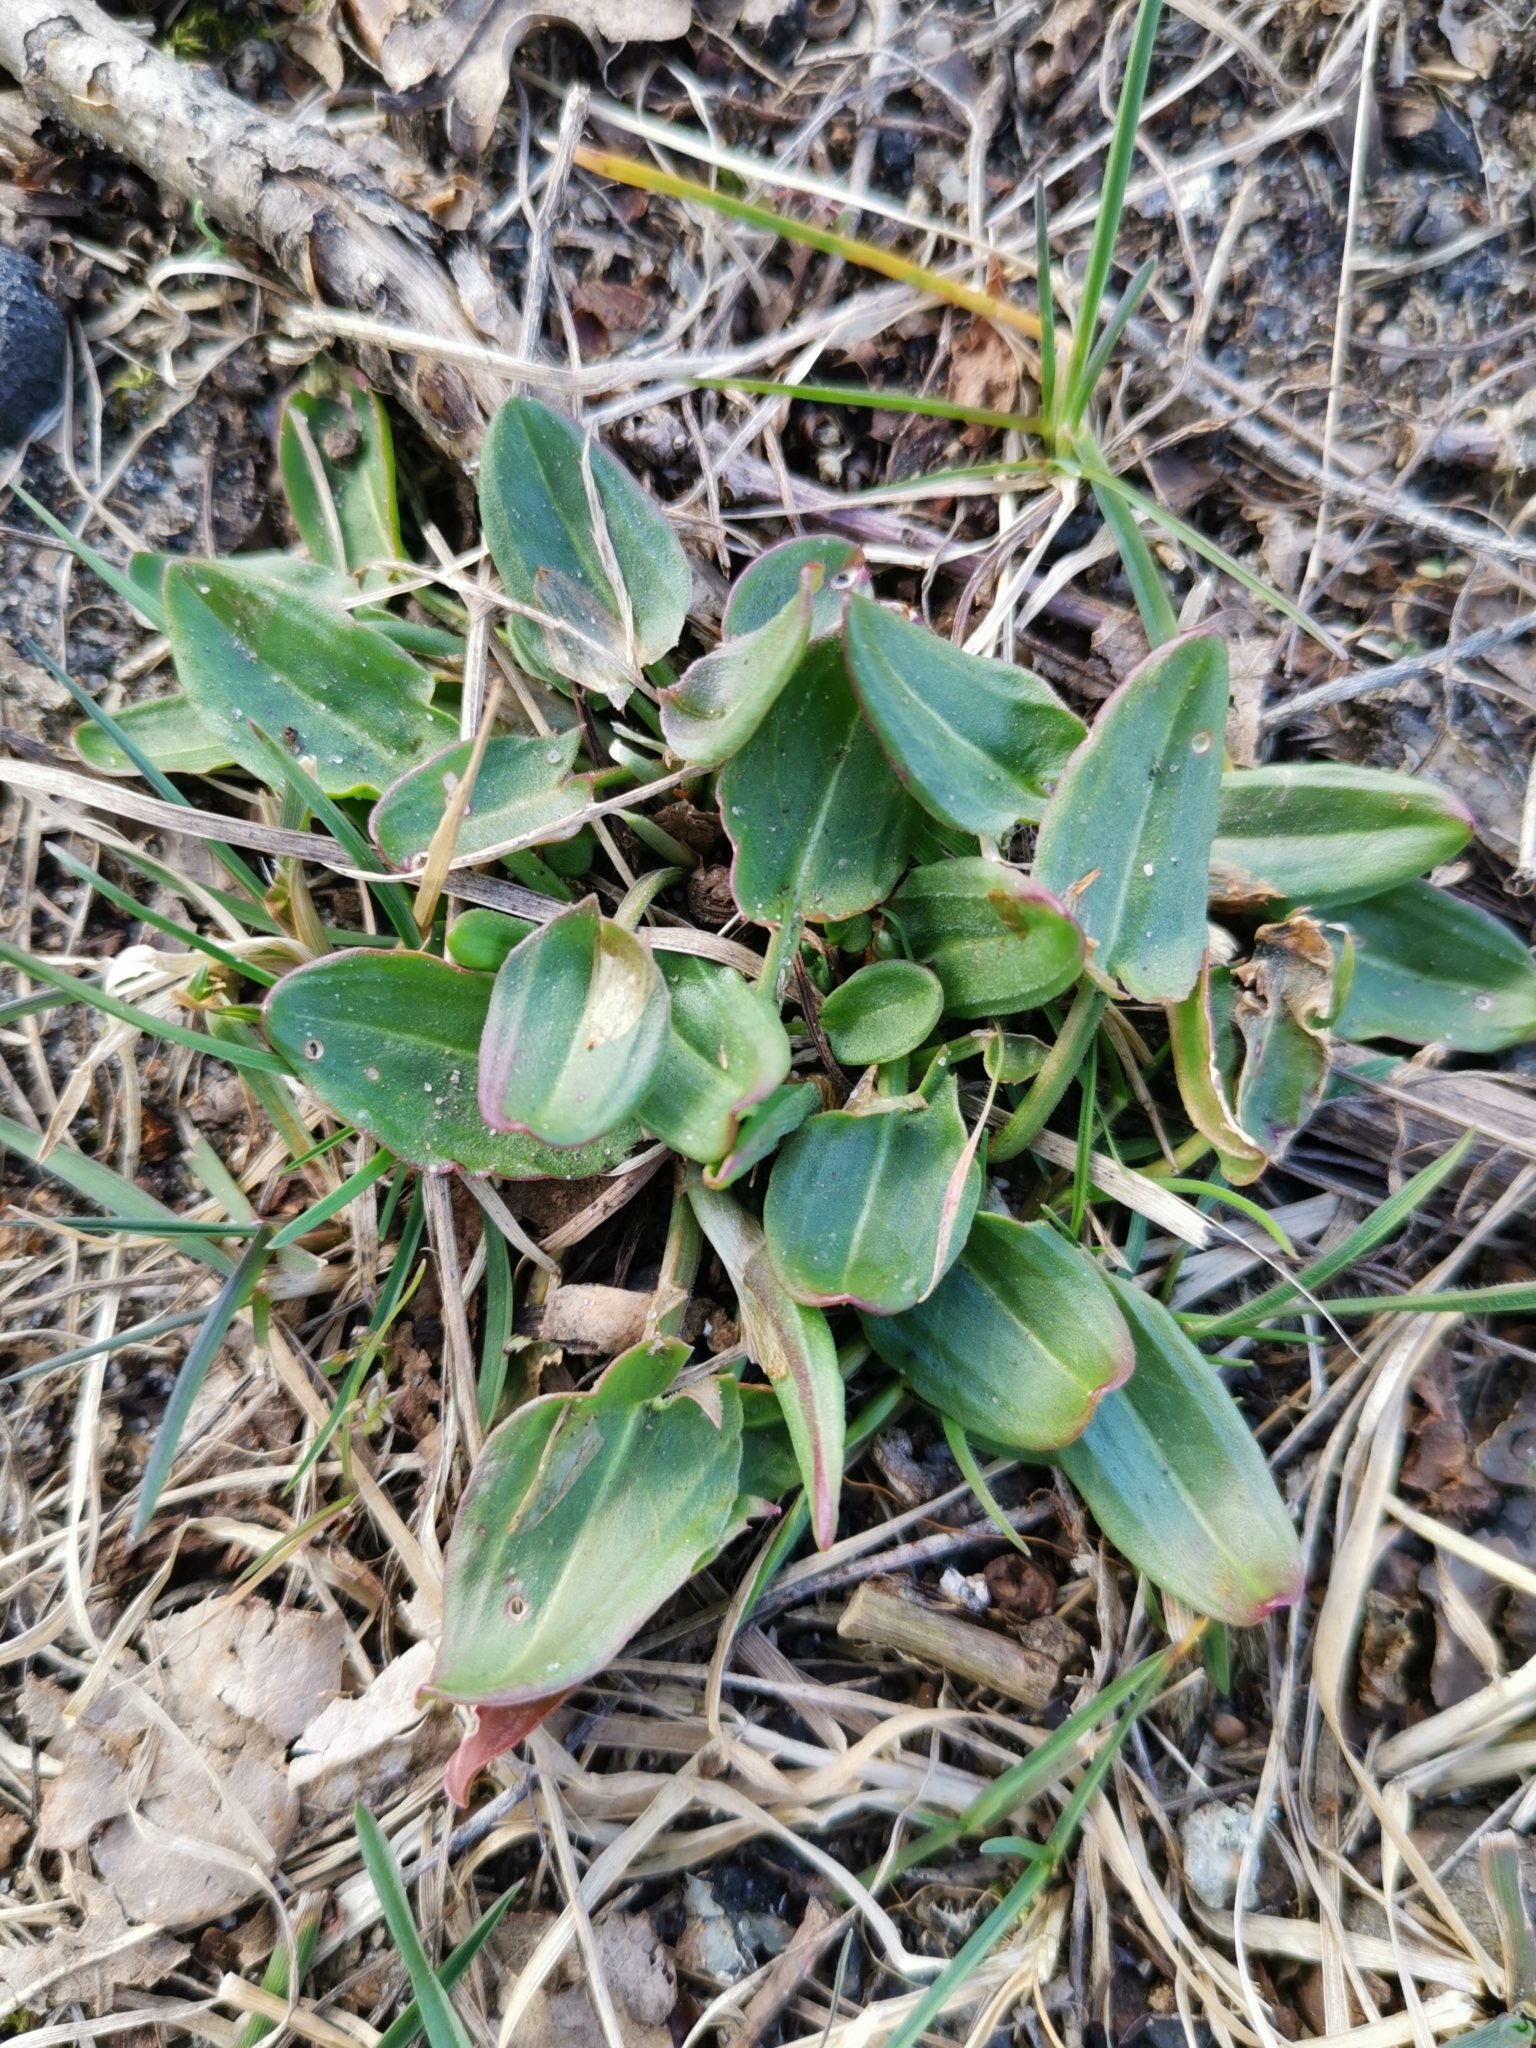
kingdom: Plantae
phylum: Tracheophyta
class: Magnoliopsida
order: Caryophyllales
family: Polygonaceae
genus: Rumex
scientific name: Rumex acetosa
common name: Garden sorrel
